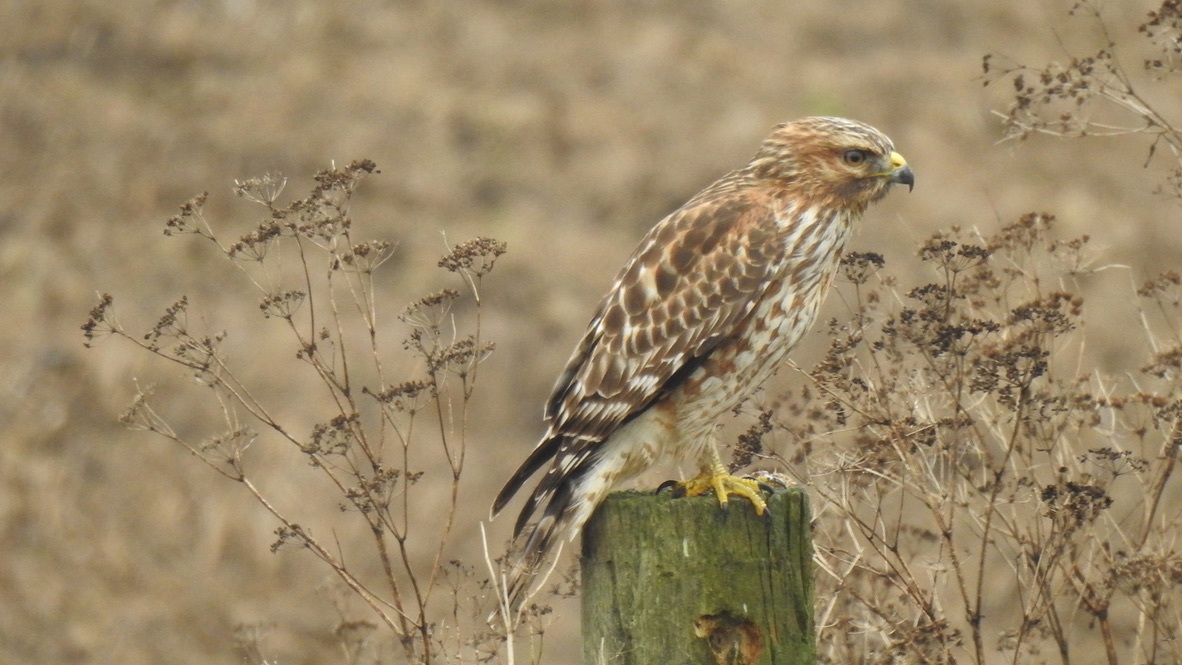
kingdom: Animalia
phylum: Chordata
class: Aves
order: Accipitriformes
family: Accipitridae
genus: Buteo
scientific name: Buteo lineatus
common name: Red-shouldered hawk
